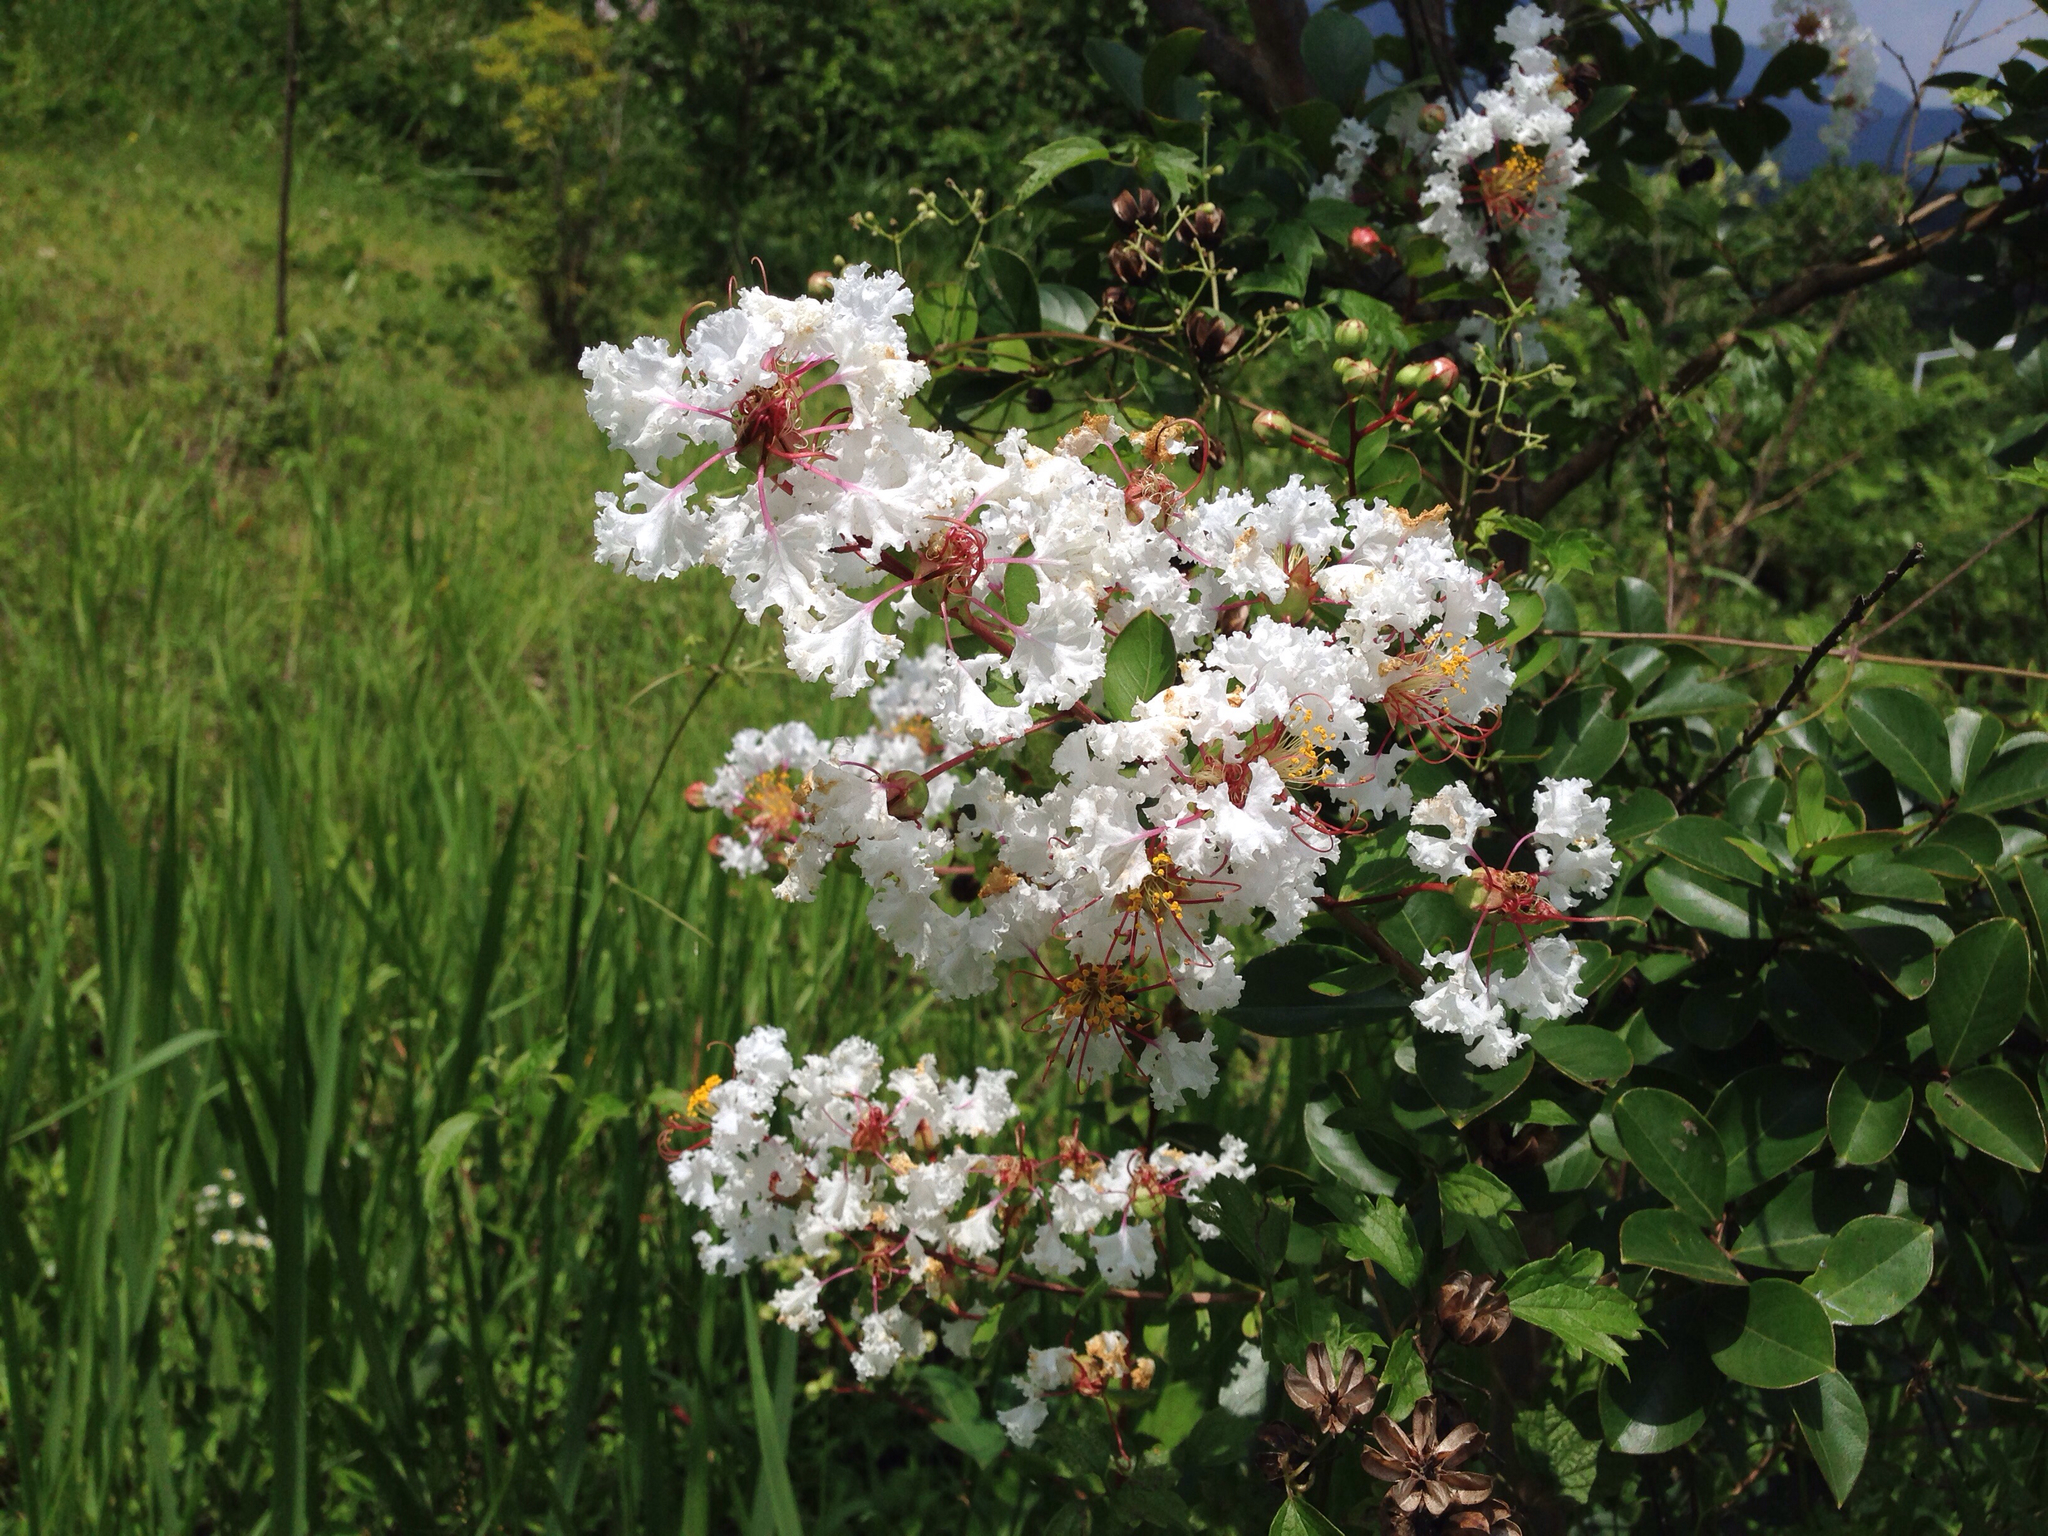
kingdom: Plantae
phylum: Tracheophyta
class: Magnoliopsida
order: Myrtales
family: Lythraceae
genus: Lagerstroemia
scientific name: Lagerstroemia indica
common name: Crape-myrtle
